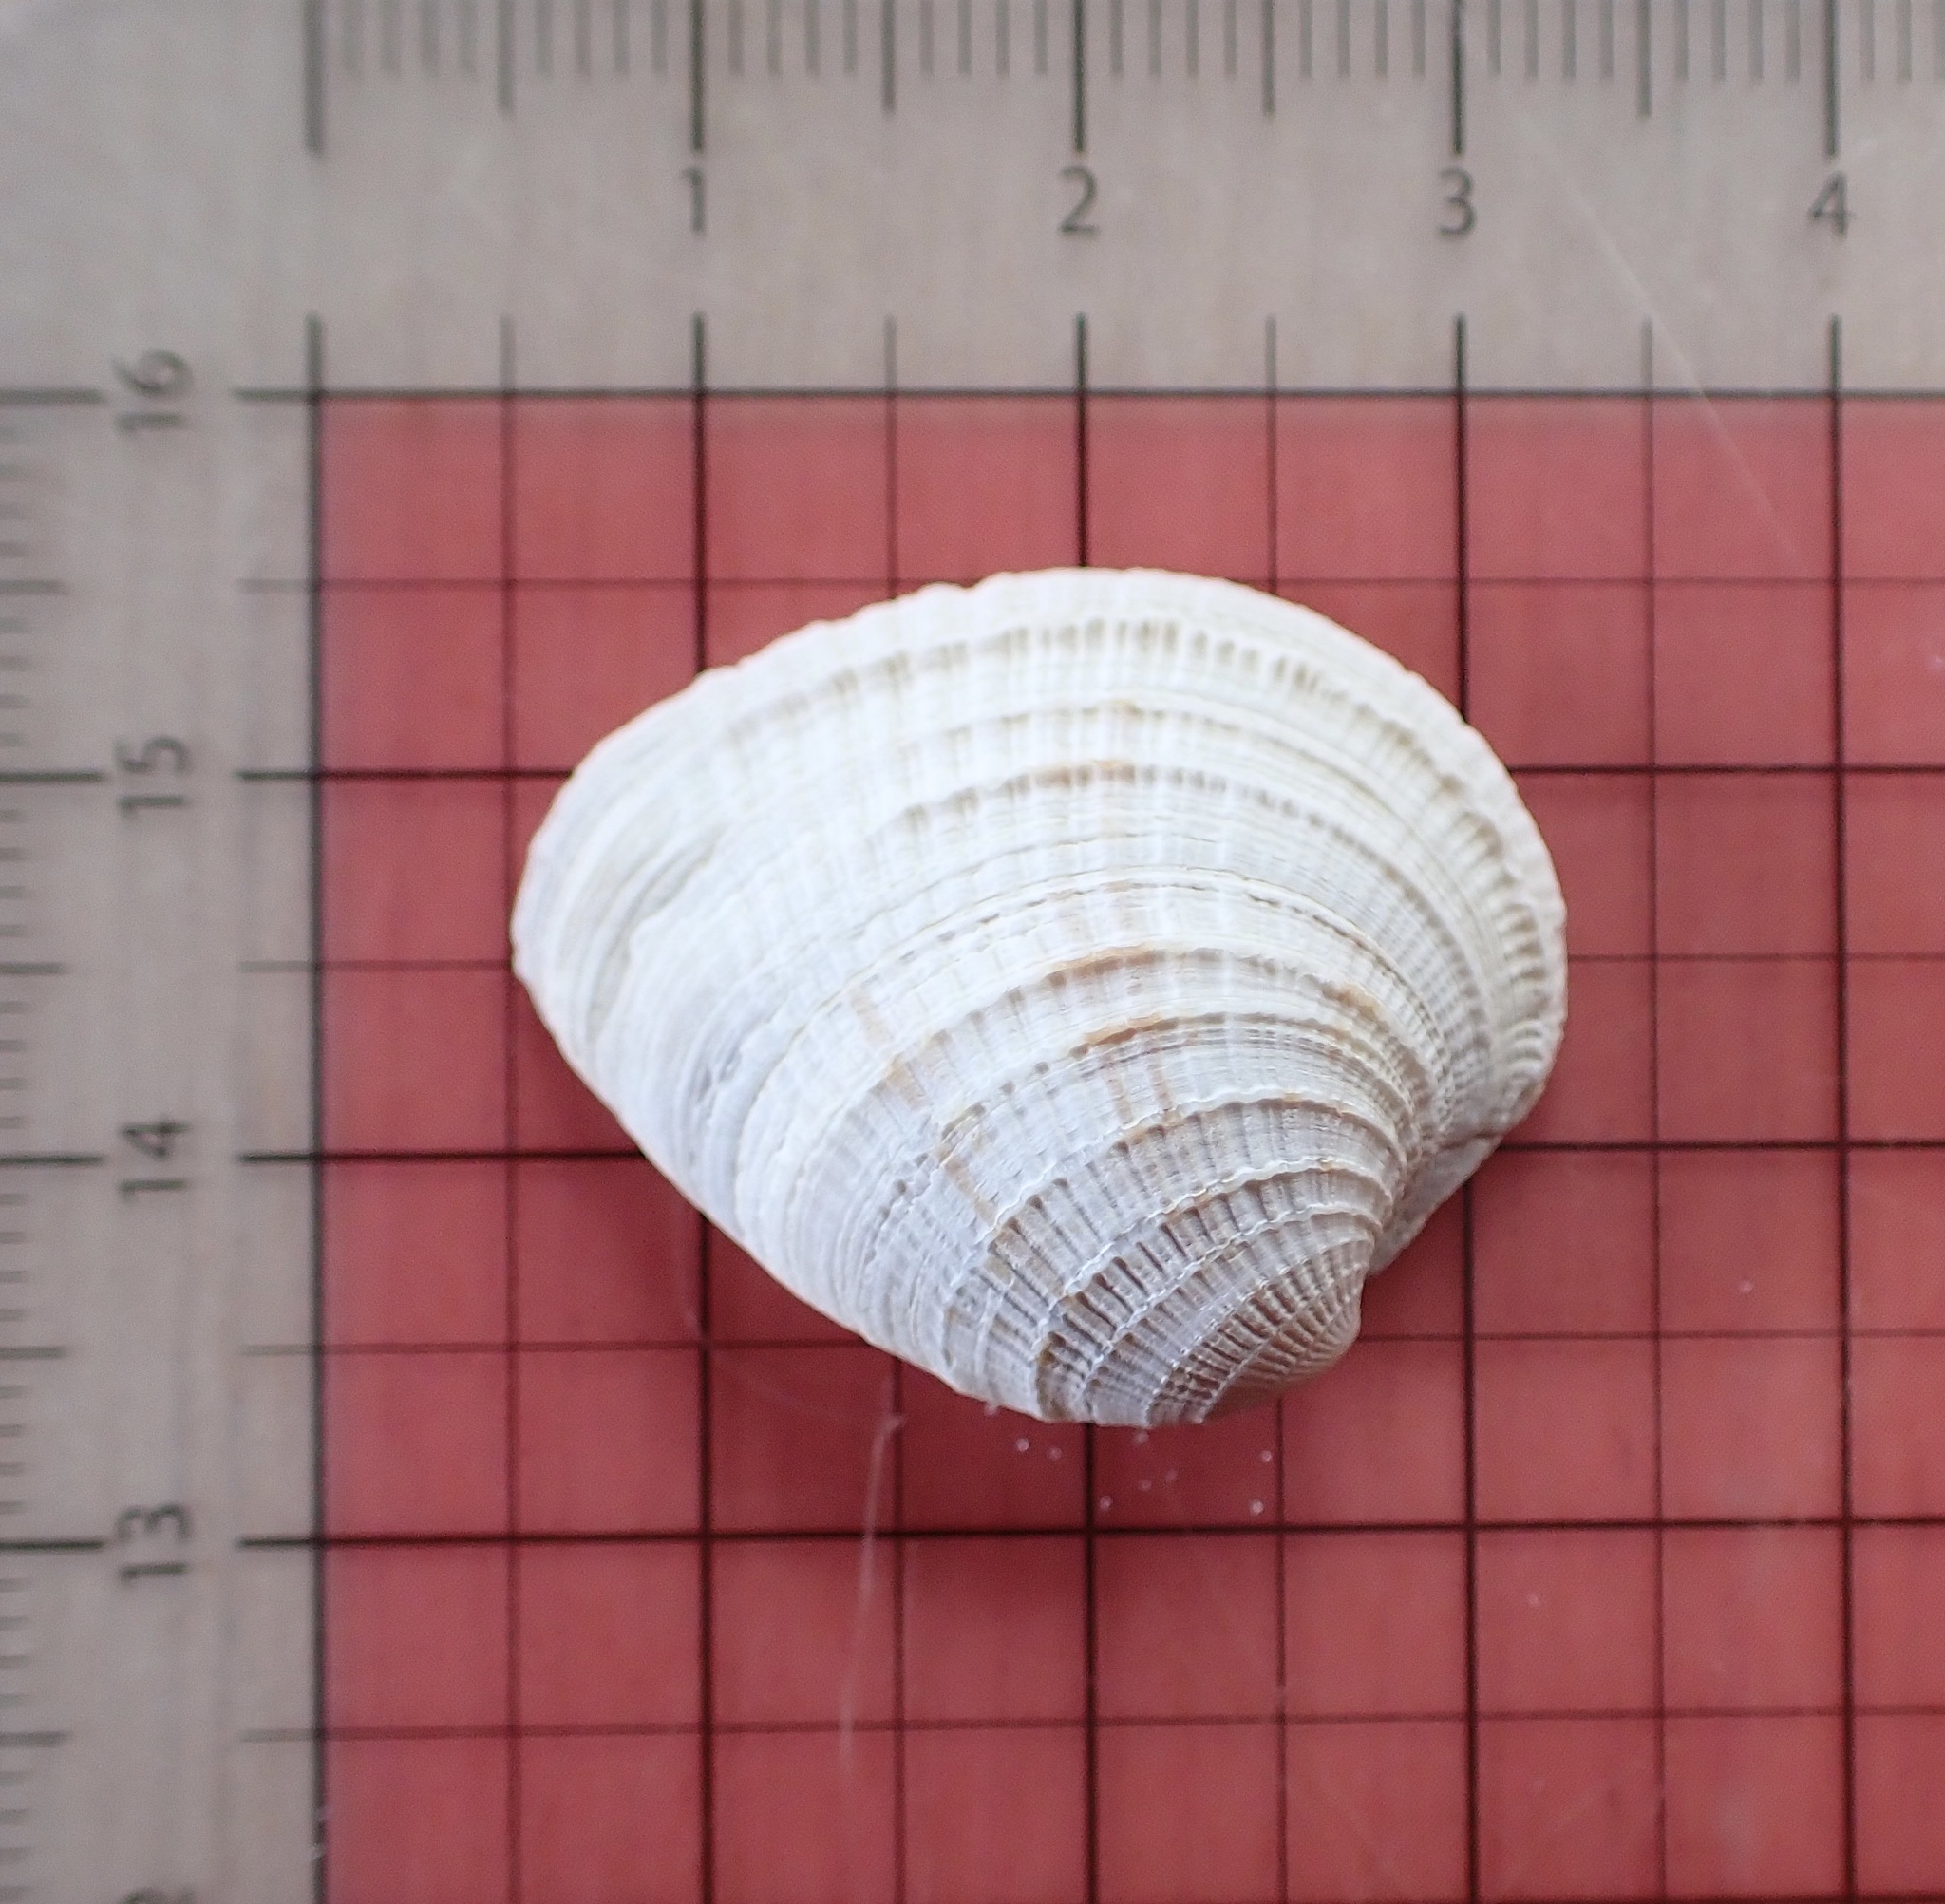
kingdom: Animalia
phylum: Mollusca
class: Bivalvia
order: Venerida
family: Veneridae
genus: Chione
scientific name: Chione elevata
